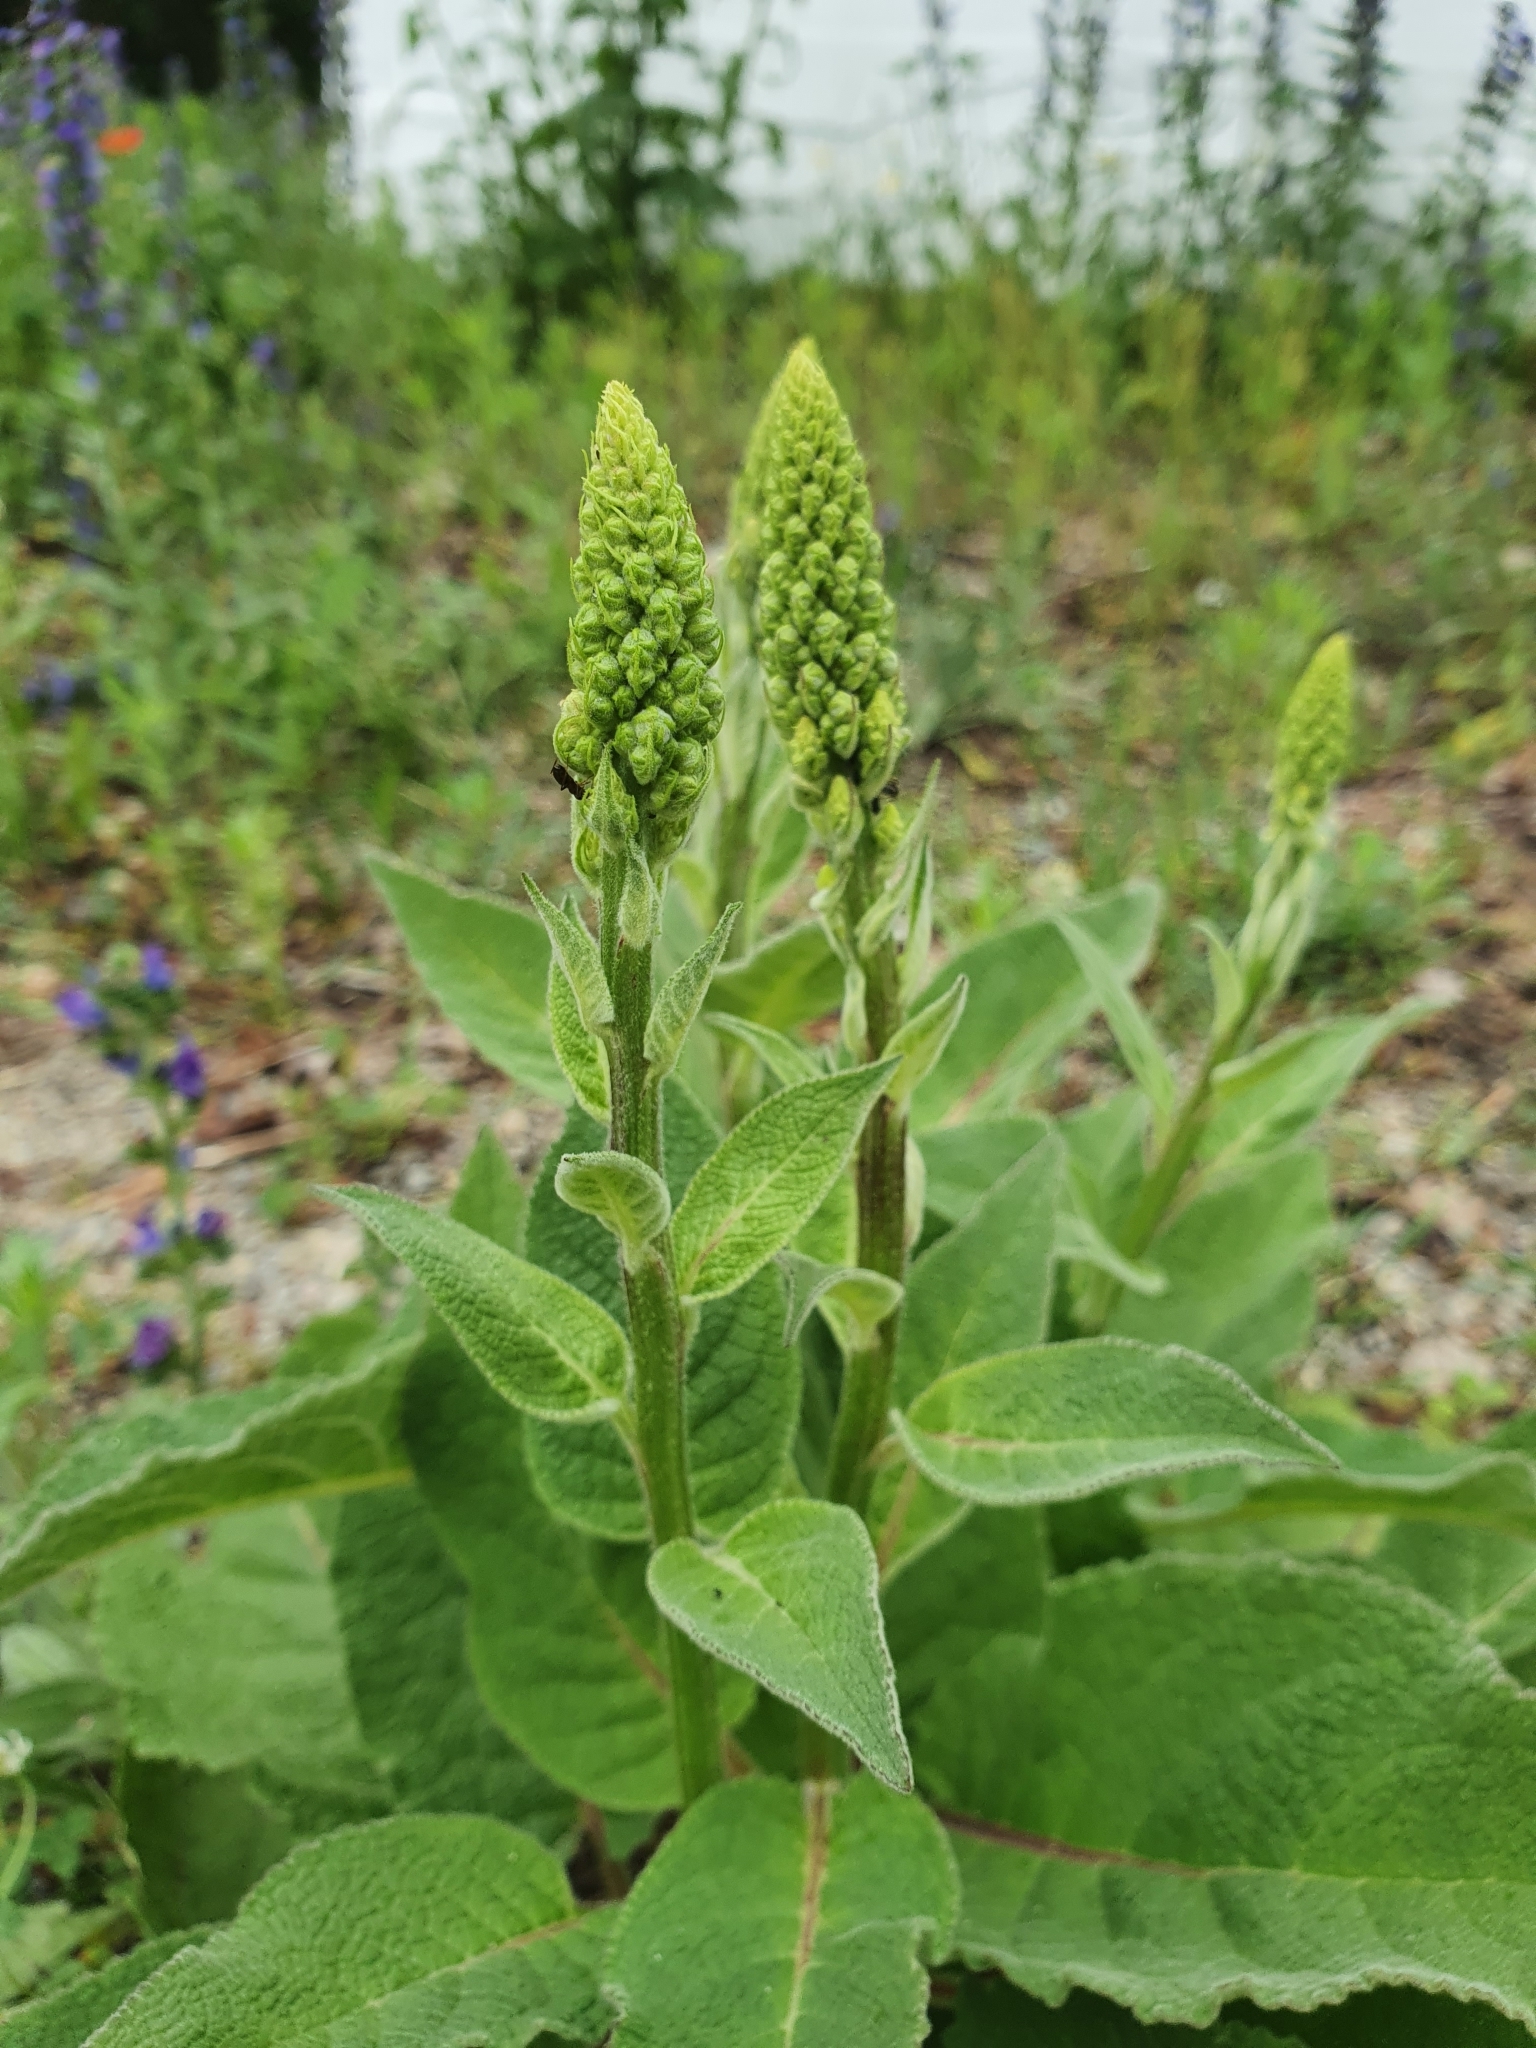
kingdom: Plantae
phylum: Tracheophyta
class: Magnoliopsida
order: Lamiales
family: Scrophulariaceae
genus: Verbascum
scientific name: Verbascum nigrum
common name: Dark mullein
